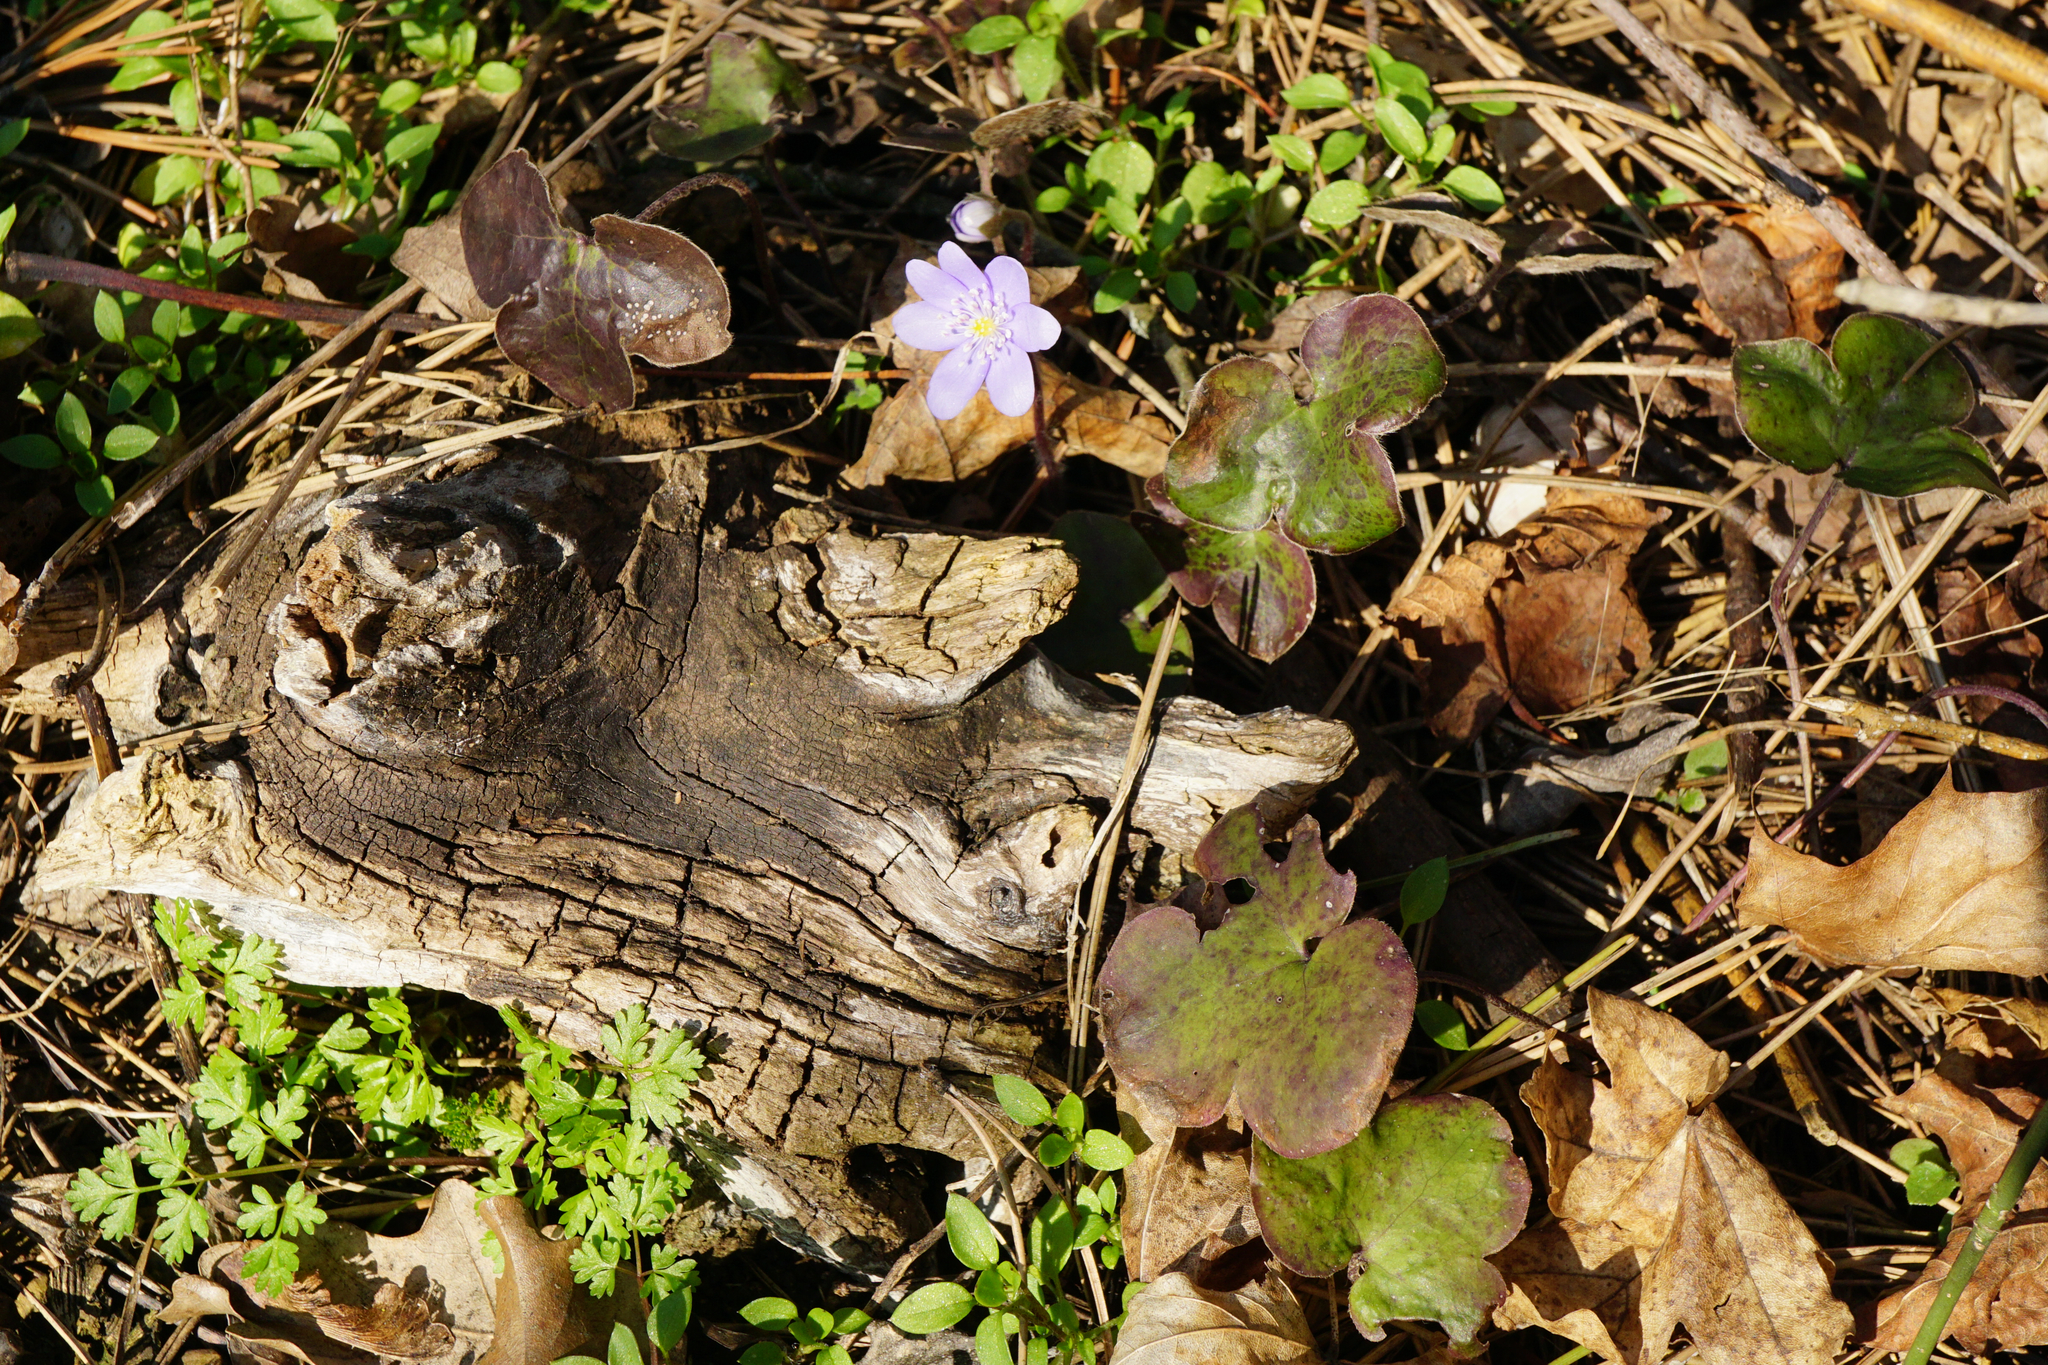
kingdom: Plantae
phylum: Tracheophyta
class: Magnoliopsida
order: Ranunculales
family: Ranunculaceae
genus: Hepatica
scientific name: Hepatica nobilis
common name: Liverleaf
